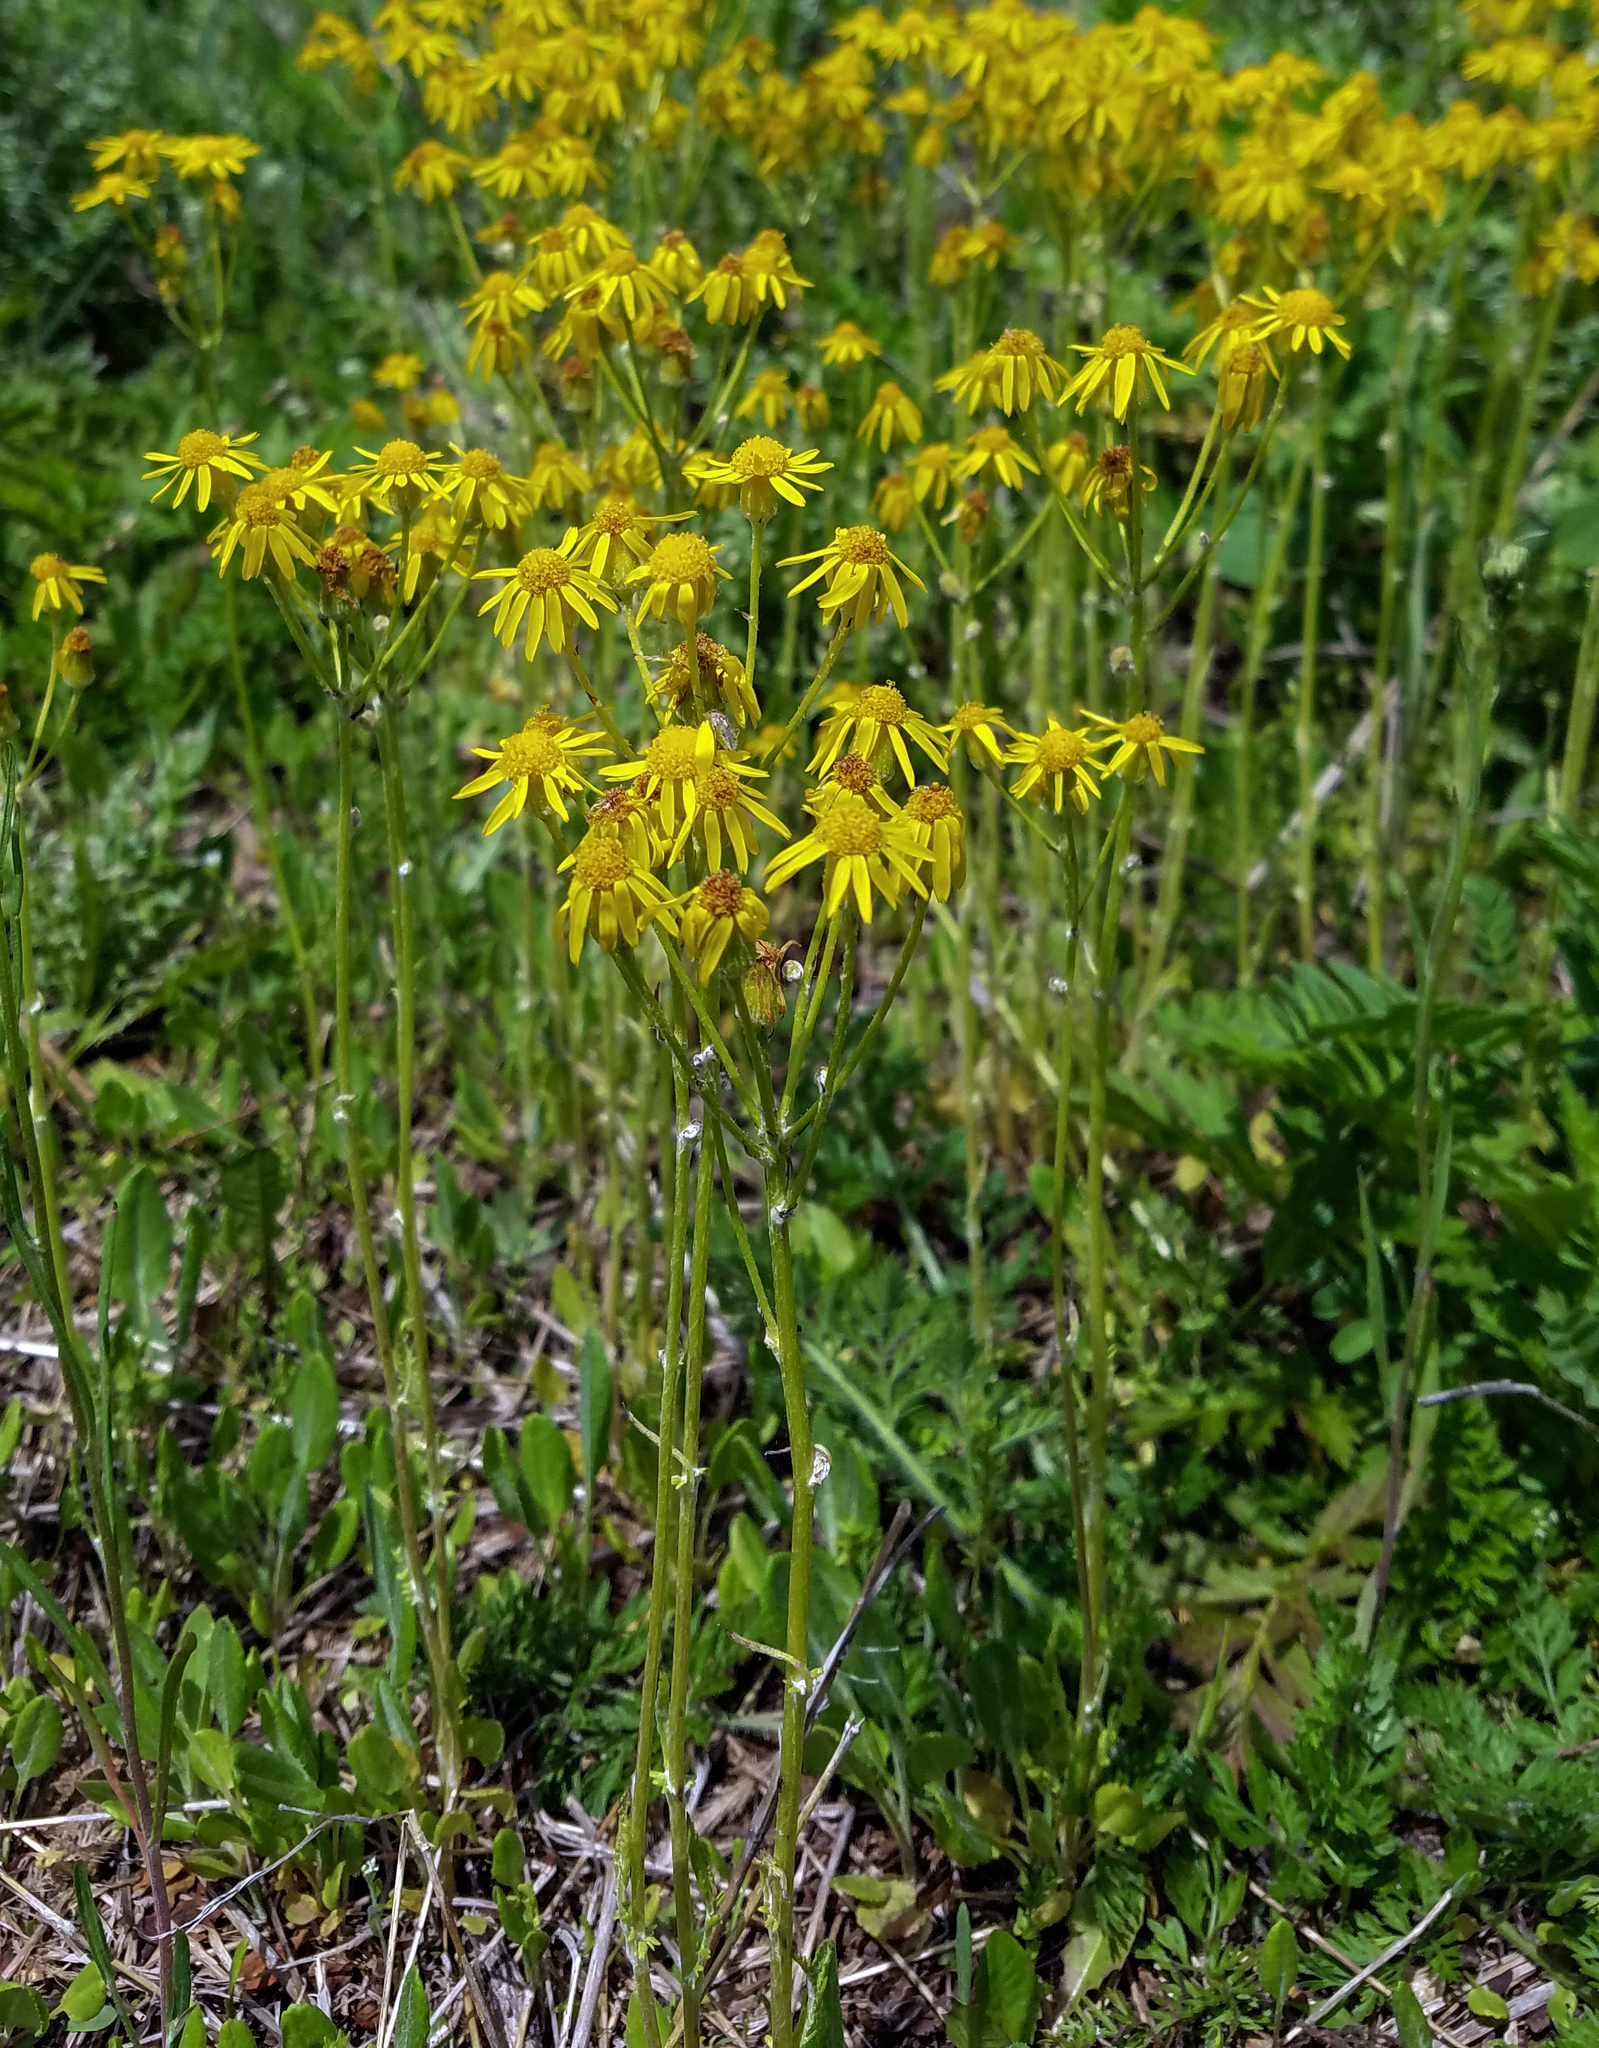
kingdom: Plantae
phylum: Tracheophyta
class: Magnoliopsida
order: Asterales
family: Asteraceae
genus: Packera
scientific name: Packera paupercula
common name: Balsam groundsel
